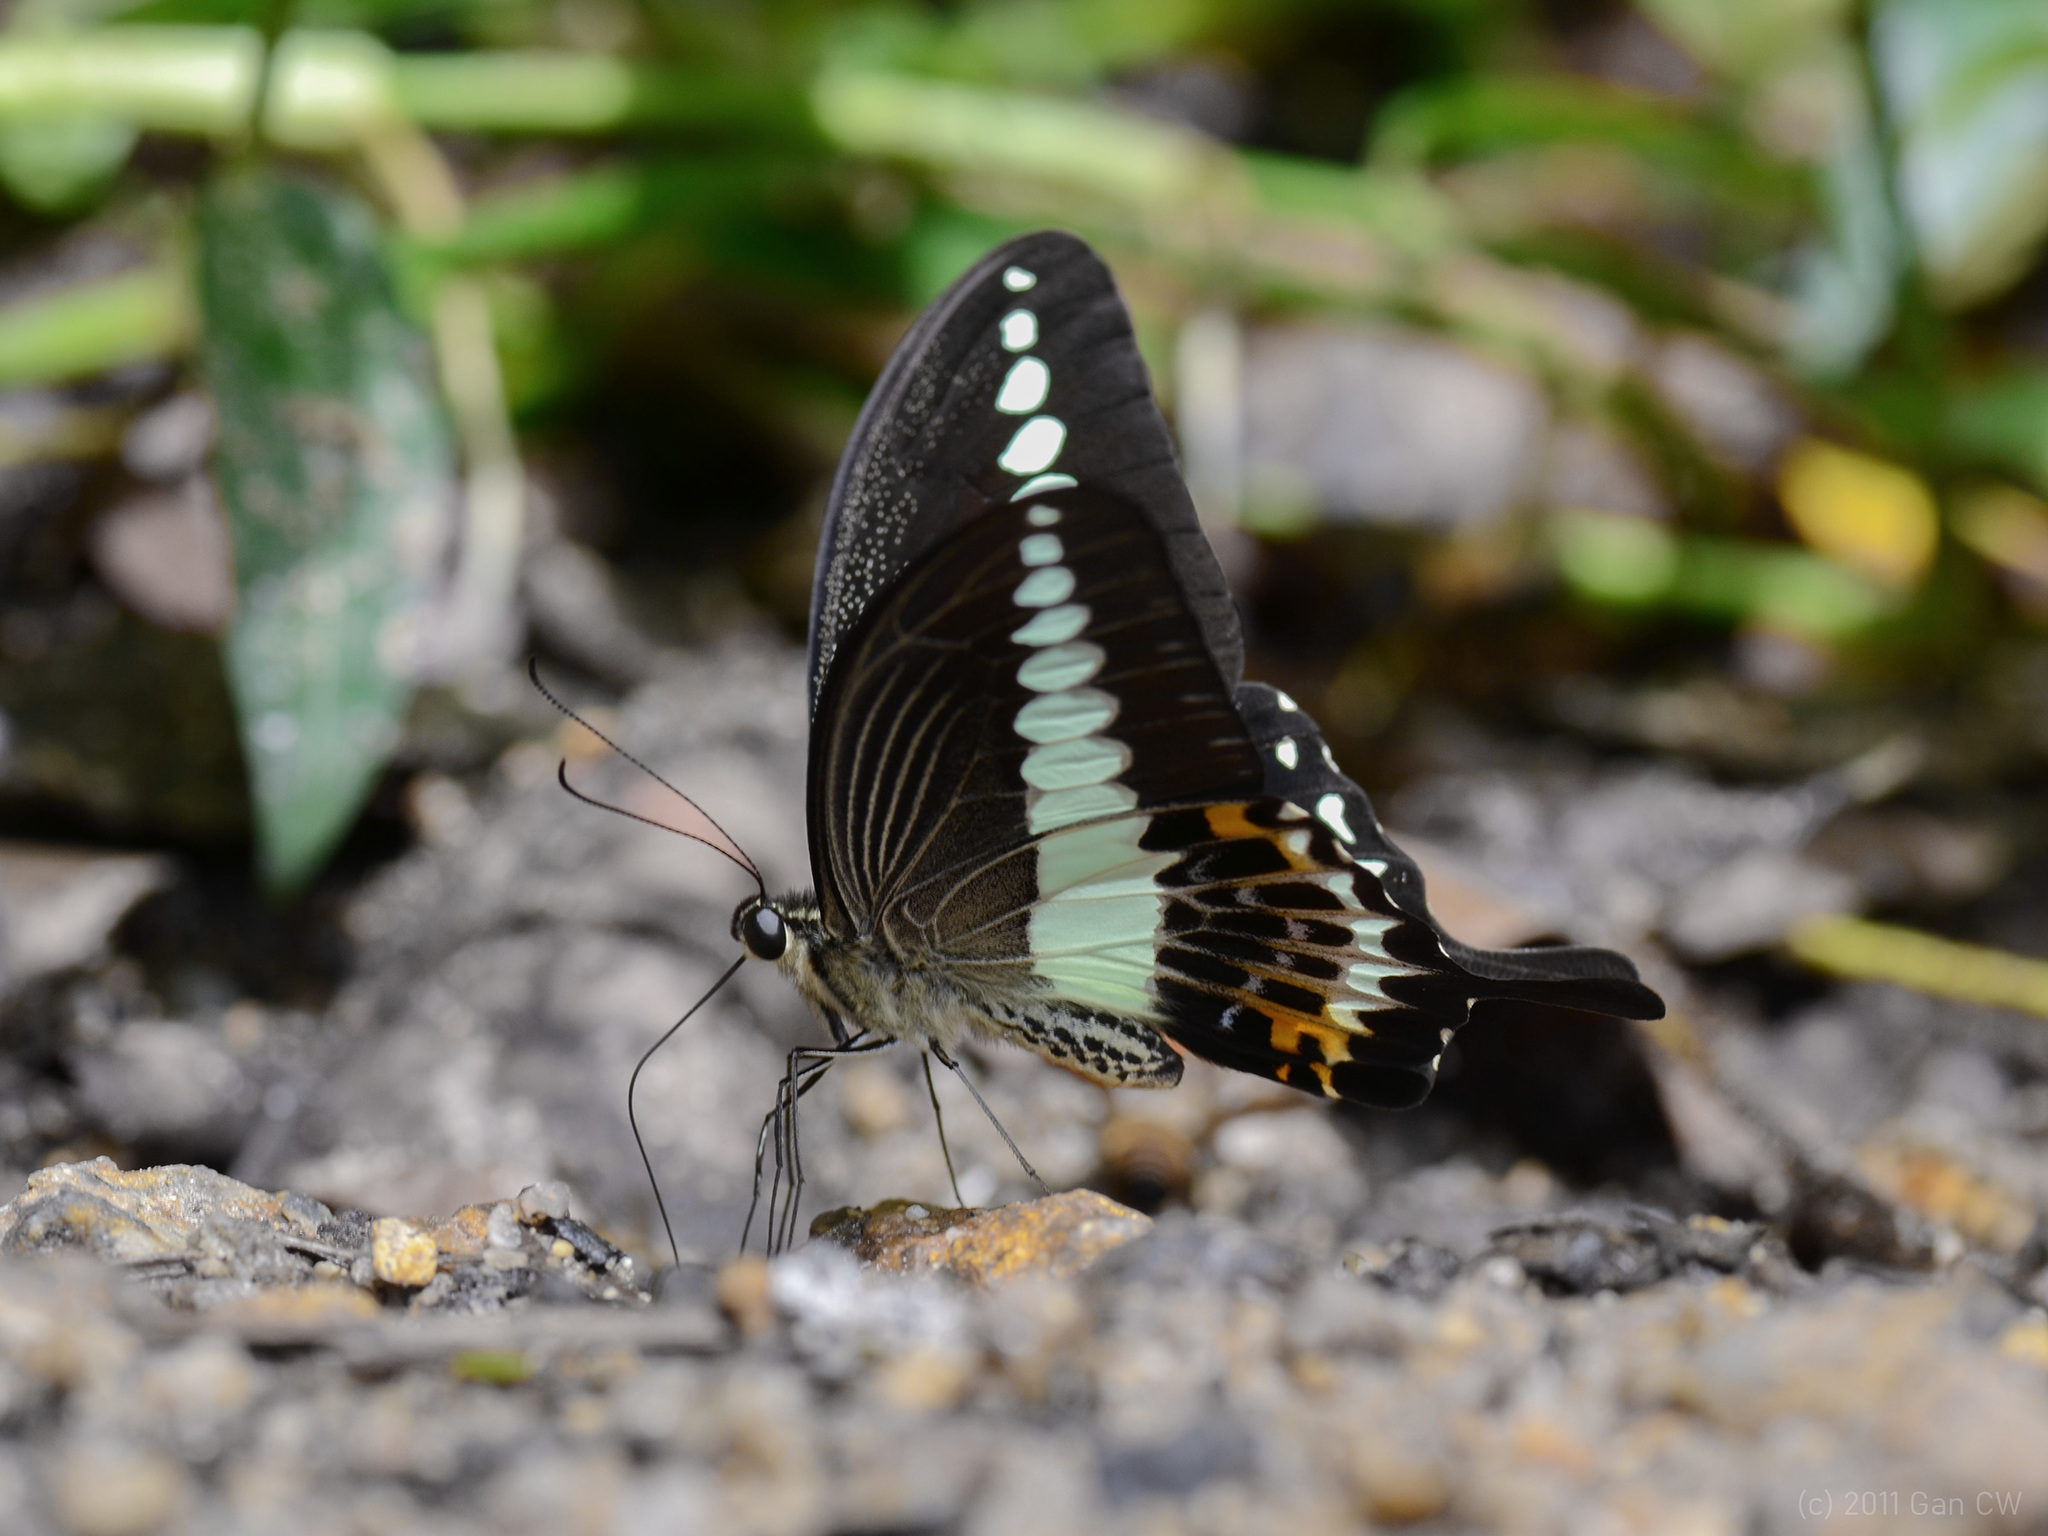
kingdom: Animalia
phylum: Arthropoda
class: Insecta
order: Lepidoptera
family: Papilionidae
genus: Papilio
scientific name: Papilio demolion
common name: Banded swallowtail
